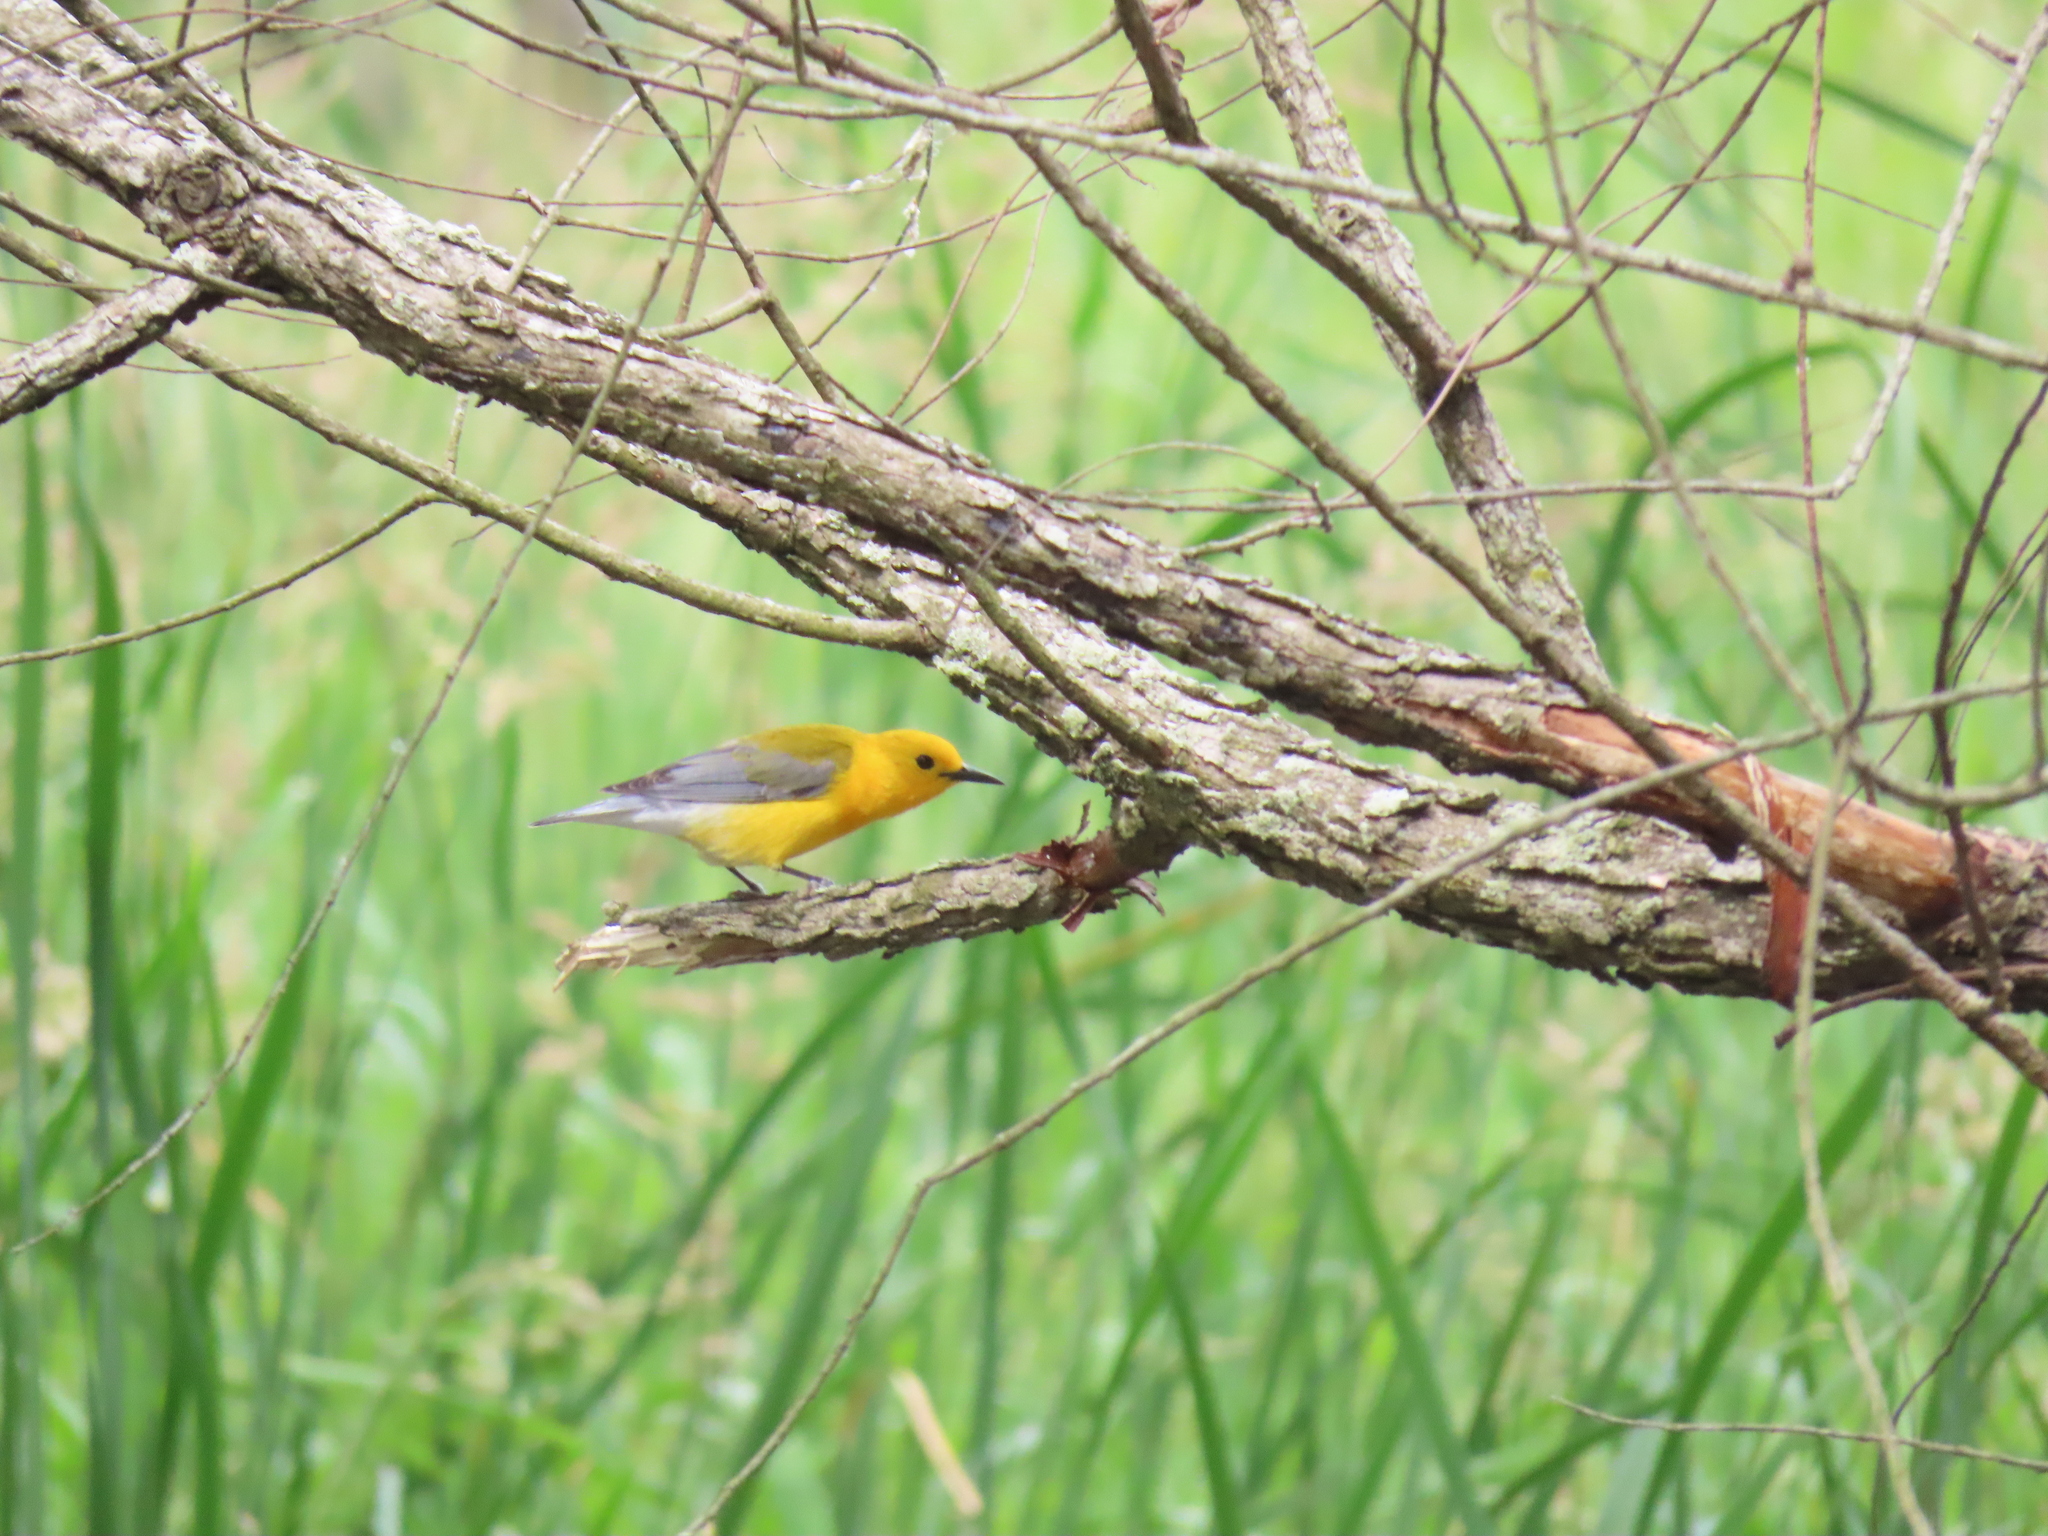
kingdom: Animalia
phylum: Chordata
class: Aves
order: Passeriformes
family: Parulidae
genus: Protonotaria
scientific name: Protonotaria citrea
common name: Prothonotary warbler
